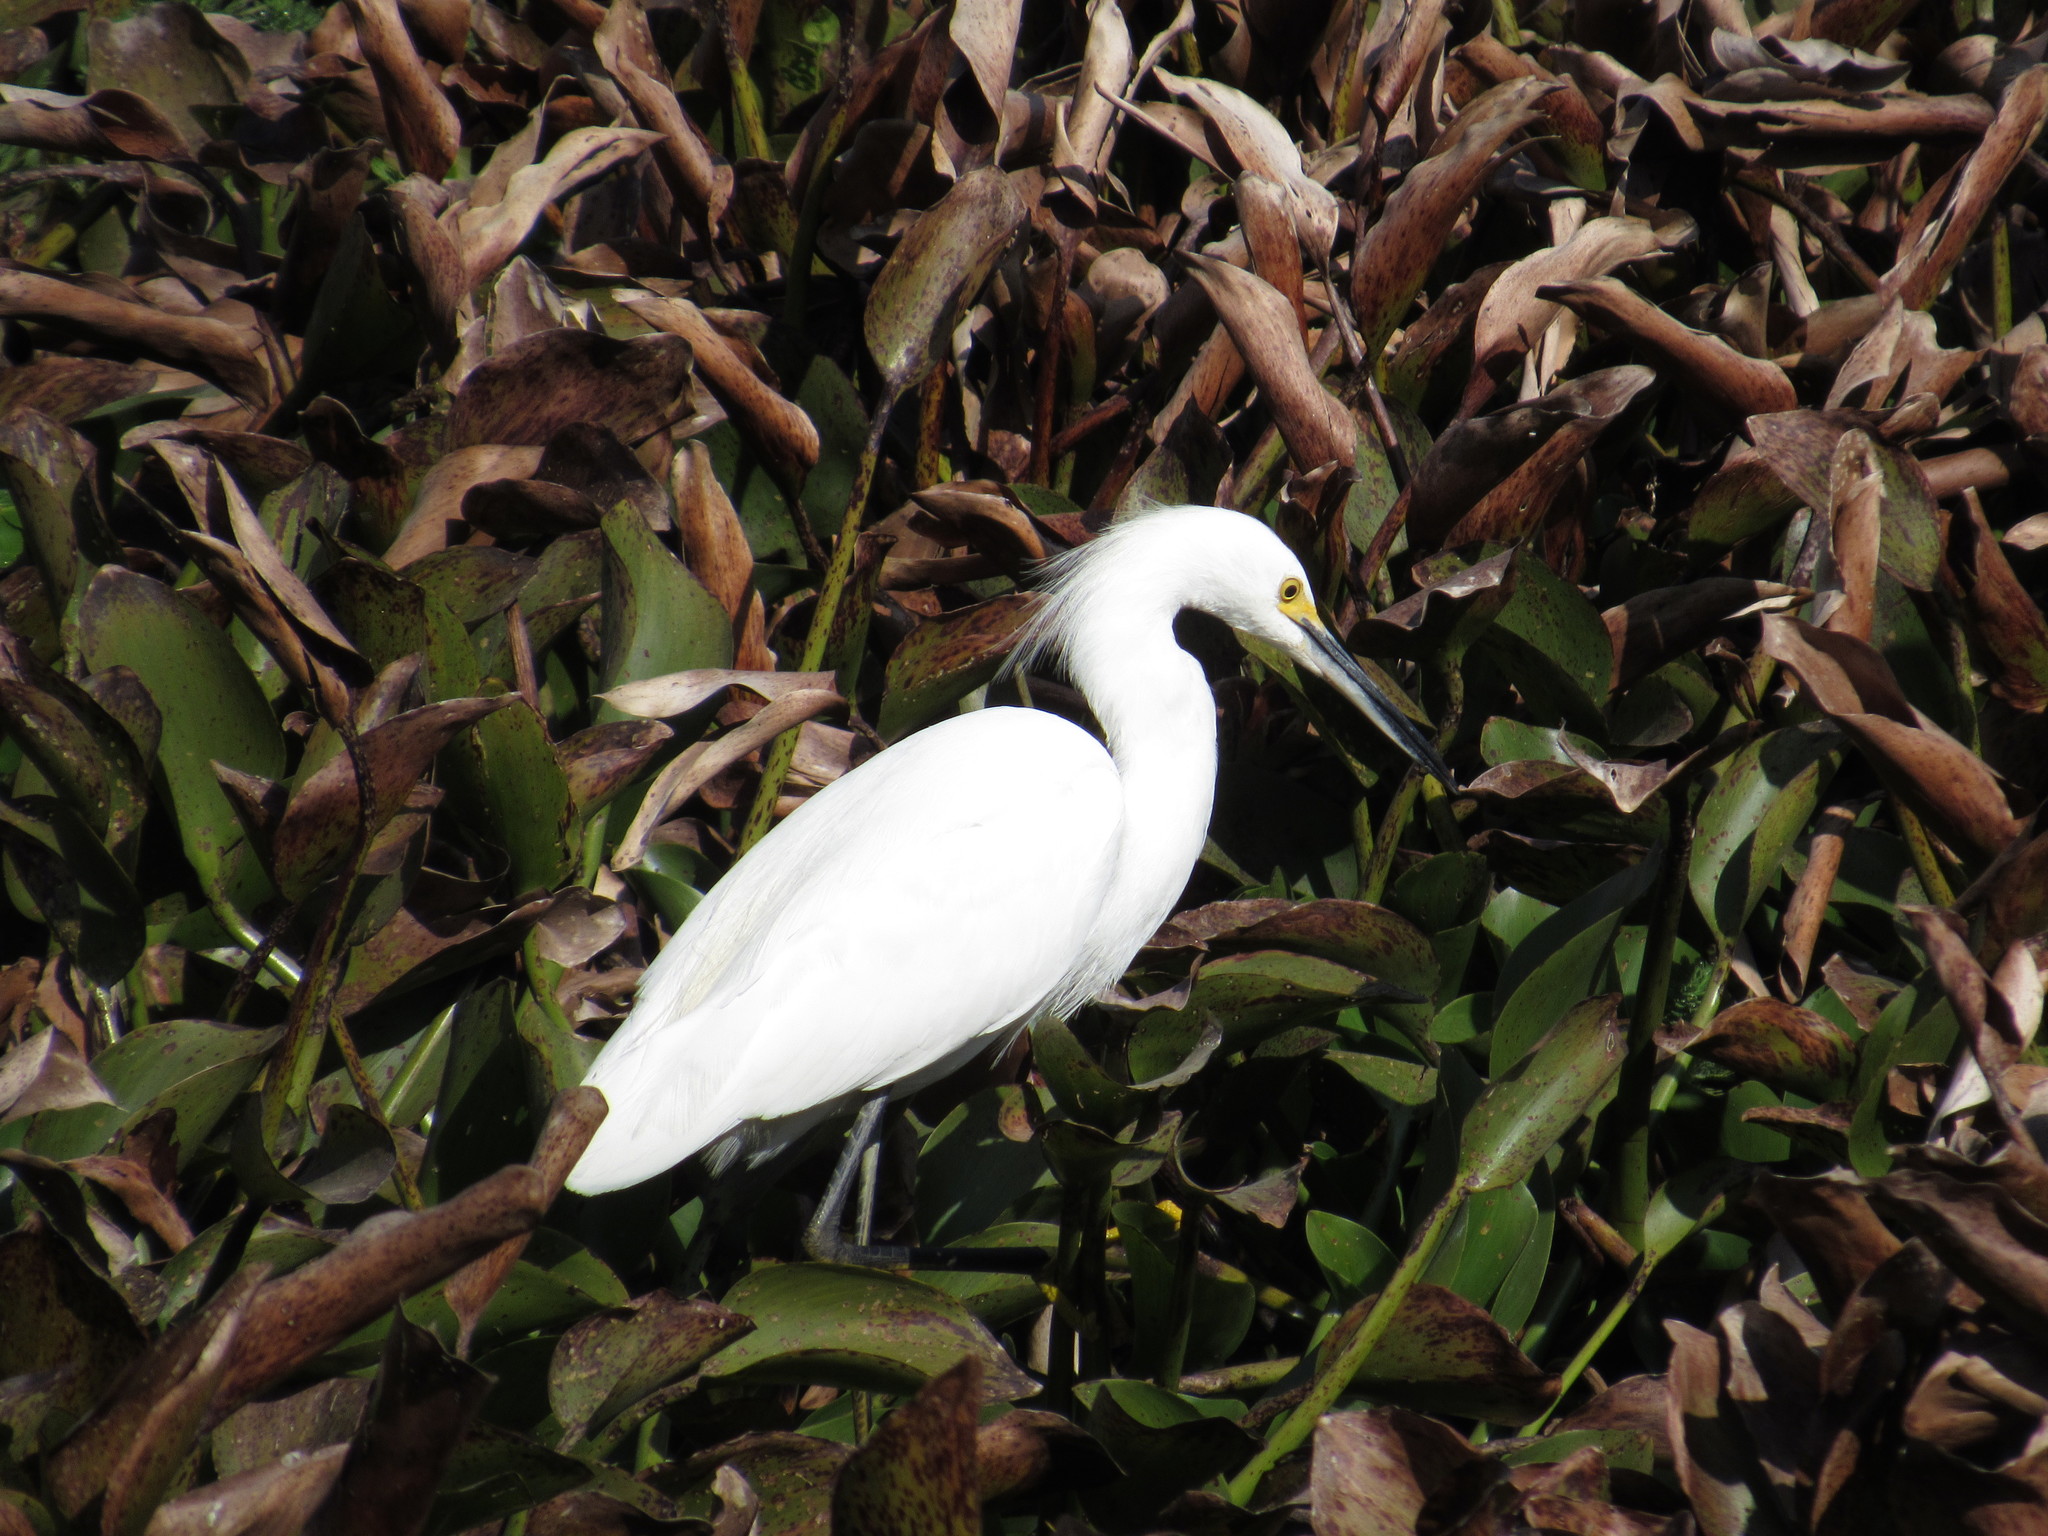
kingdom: Animalia
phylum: Chordata
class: Aves
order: Pelecaniformes
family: Ardeidae
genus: Egretta
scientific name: Egretta thula
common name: Snowy egret
